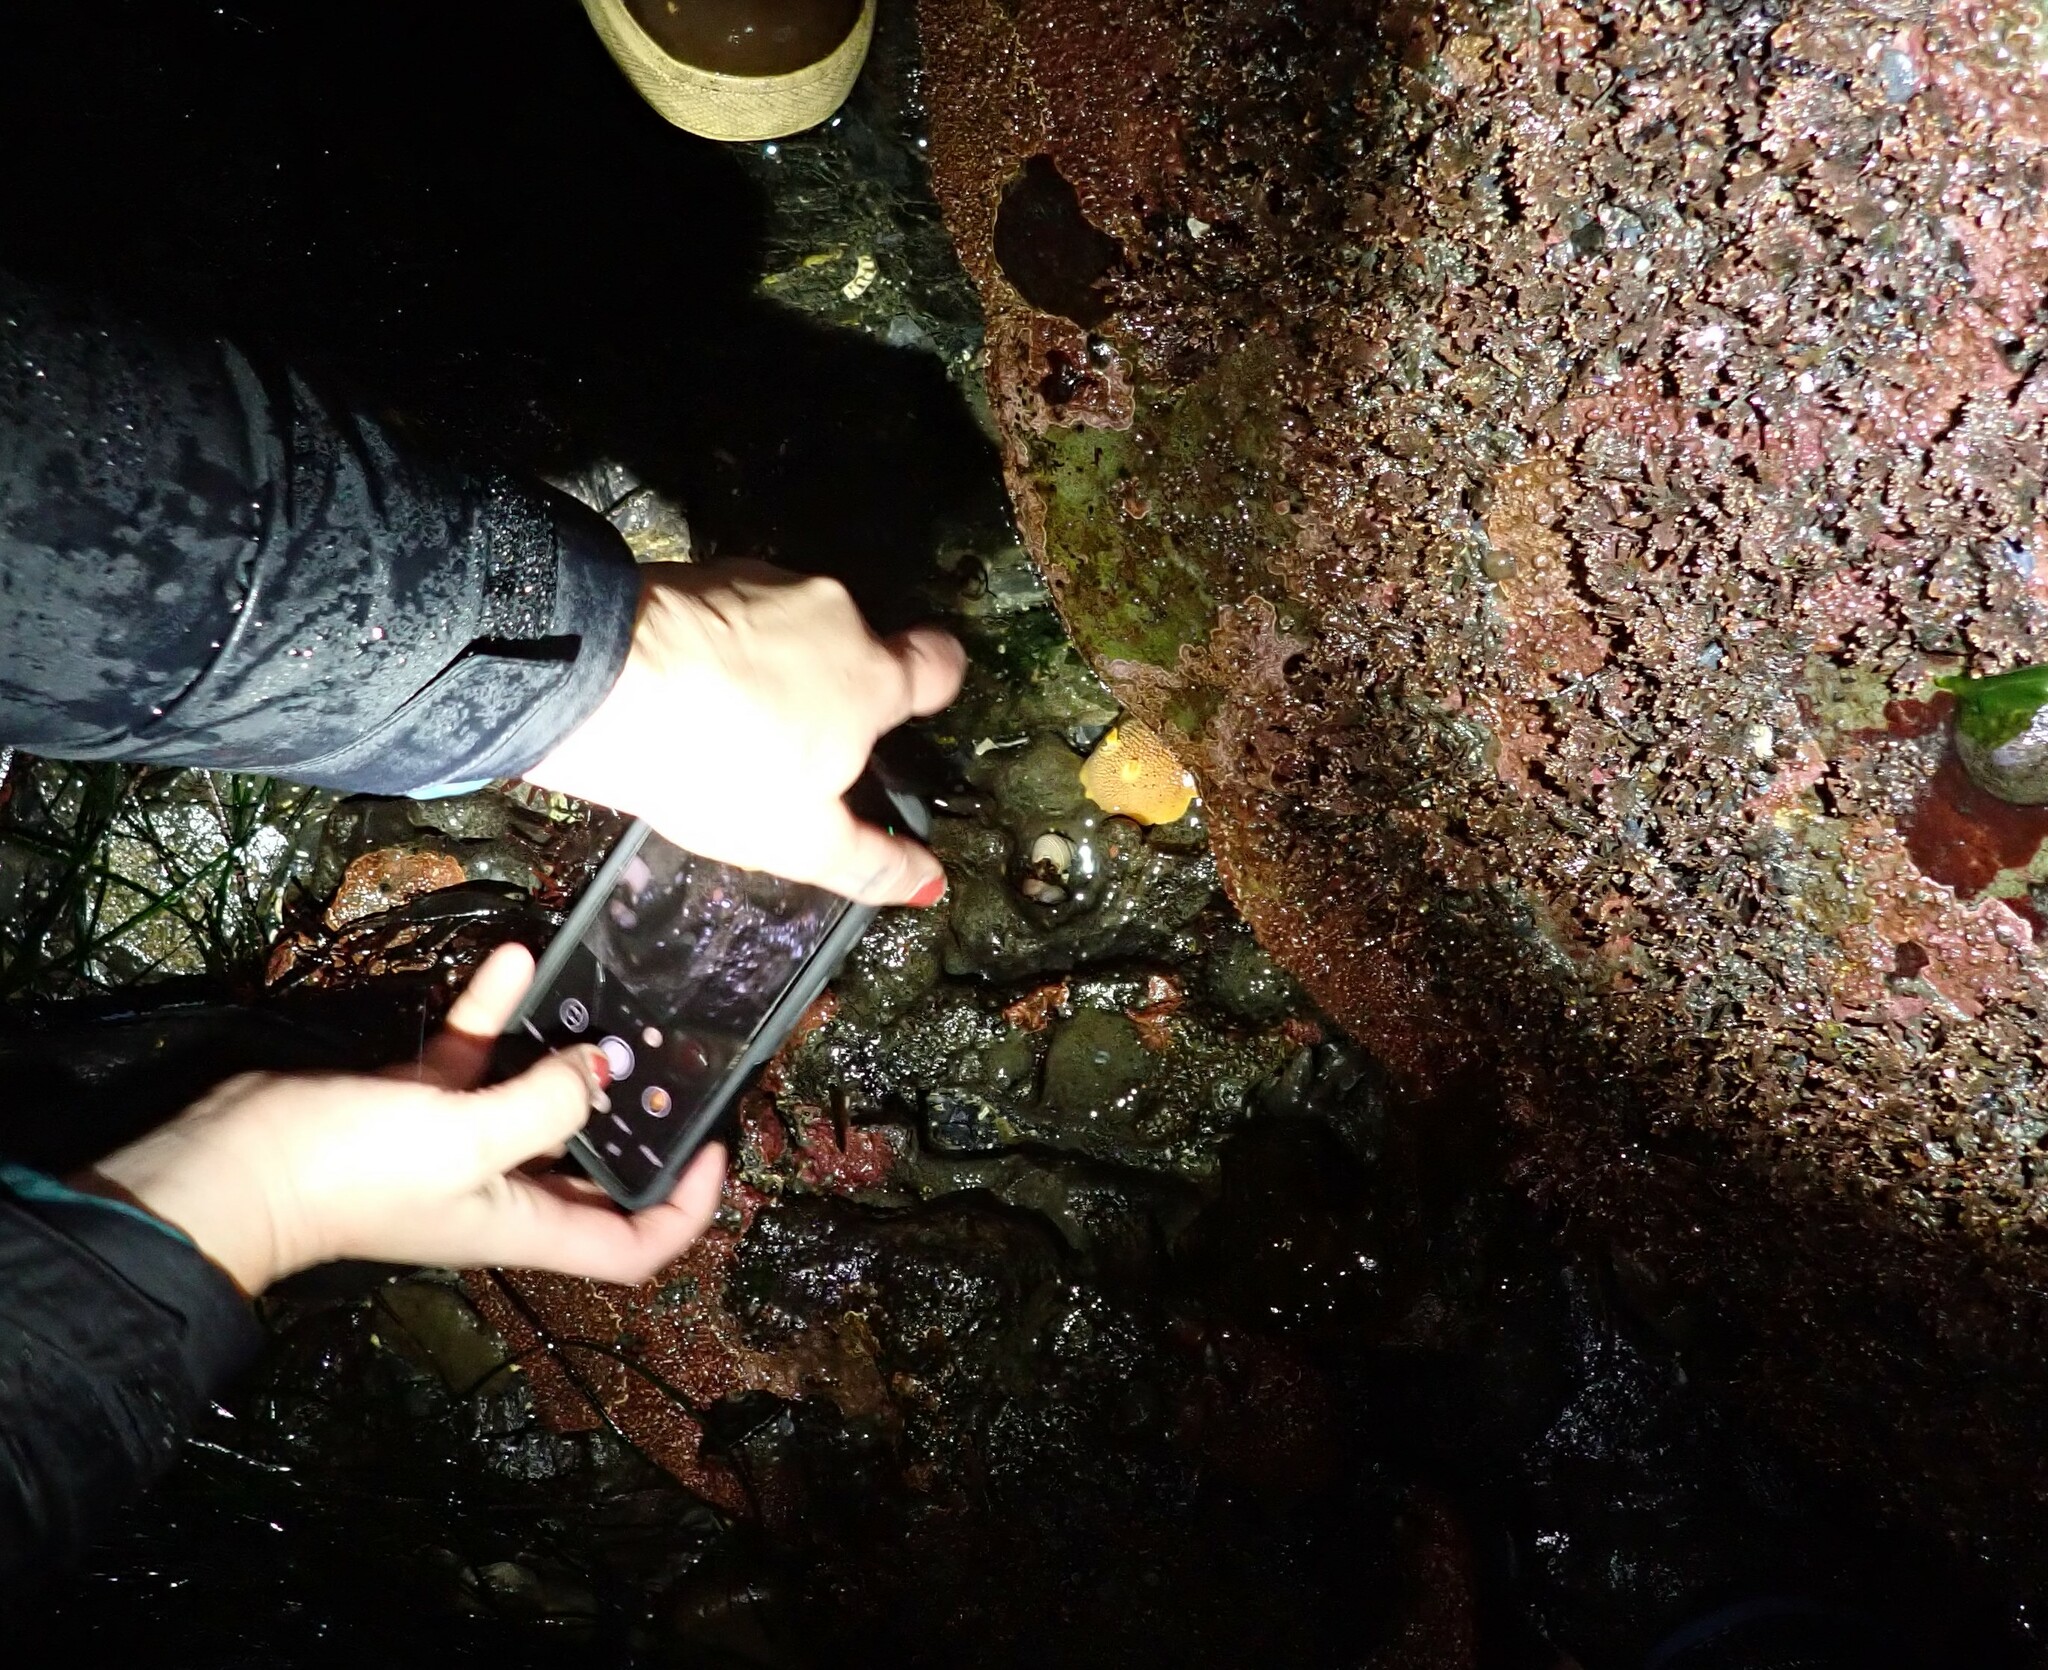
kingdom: Animalia
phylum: Mollusca
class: Gastropoda
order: Nudibranchia
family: Discodorididae
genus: Peltodoris
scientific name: Peltodoris nobilis
